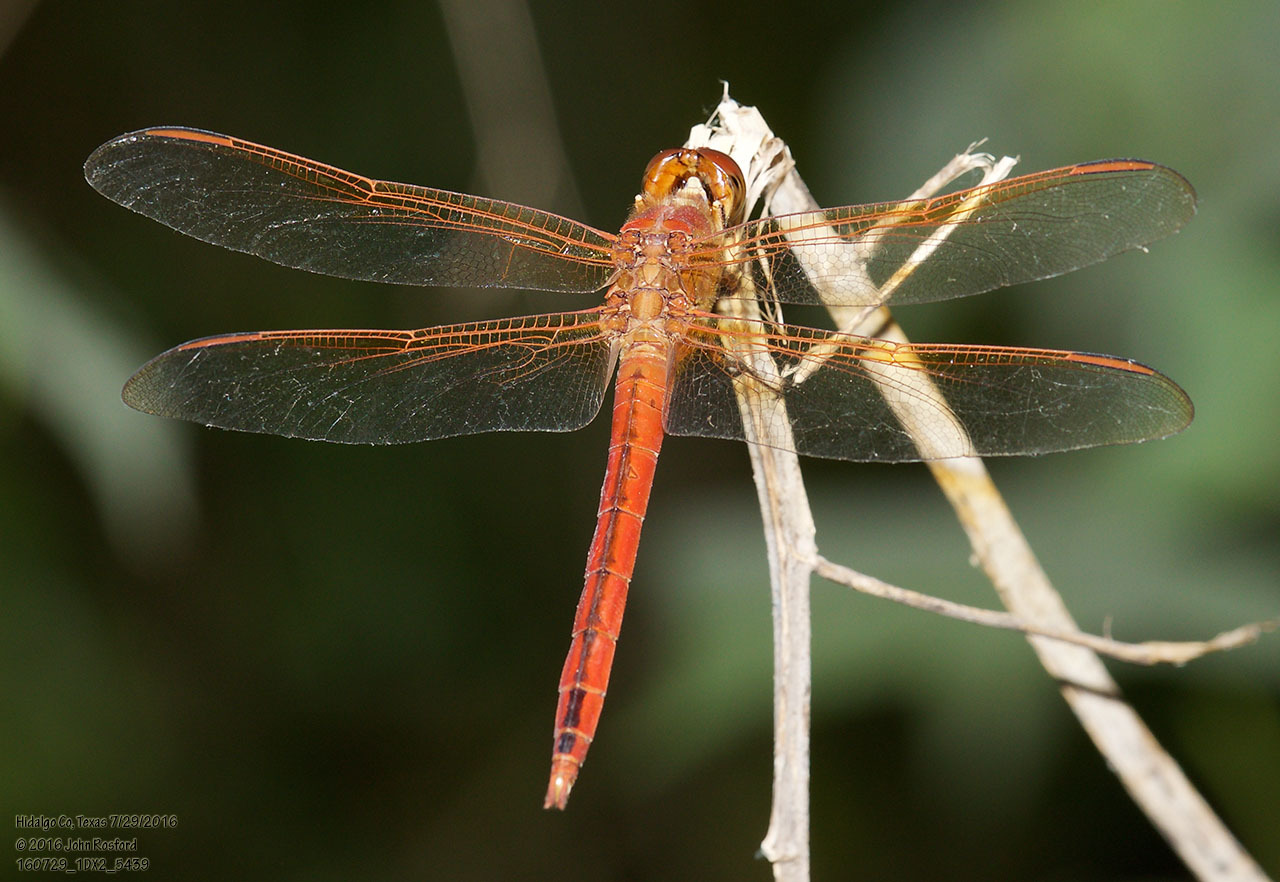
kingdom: Animalia
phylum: Arthropoda
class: Insecta
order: Odonata
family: Libellulidae
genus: Libellula
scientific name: Libellula needhami
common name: Needham's skimmer
